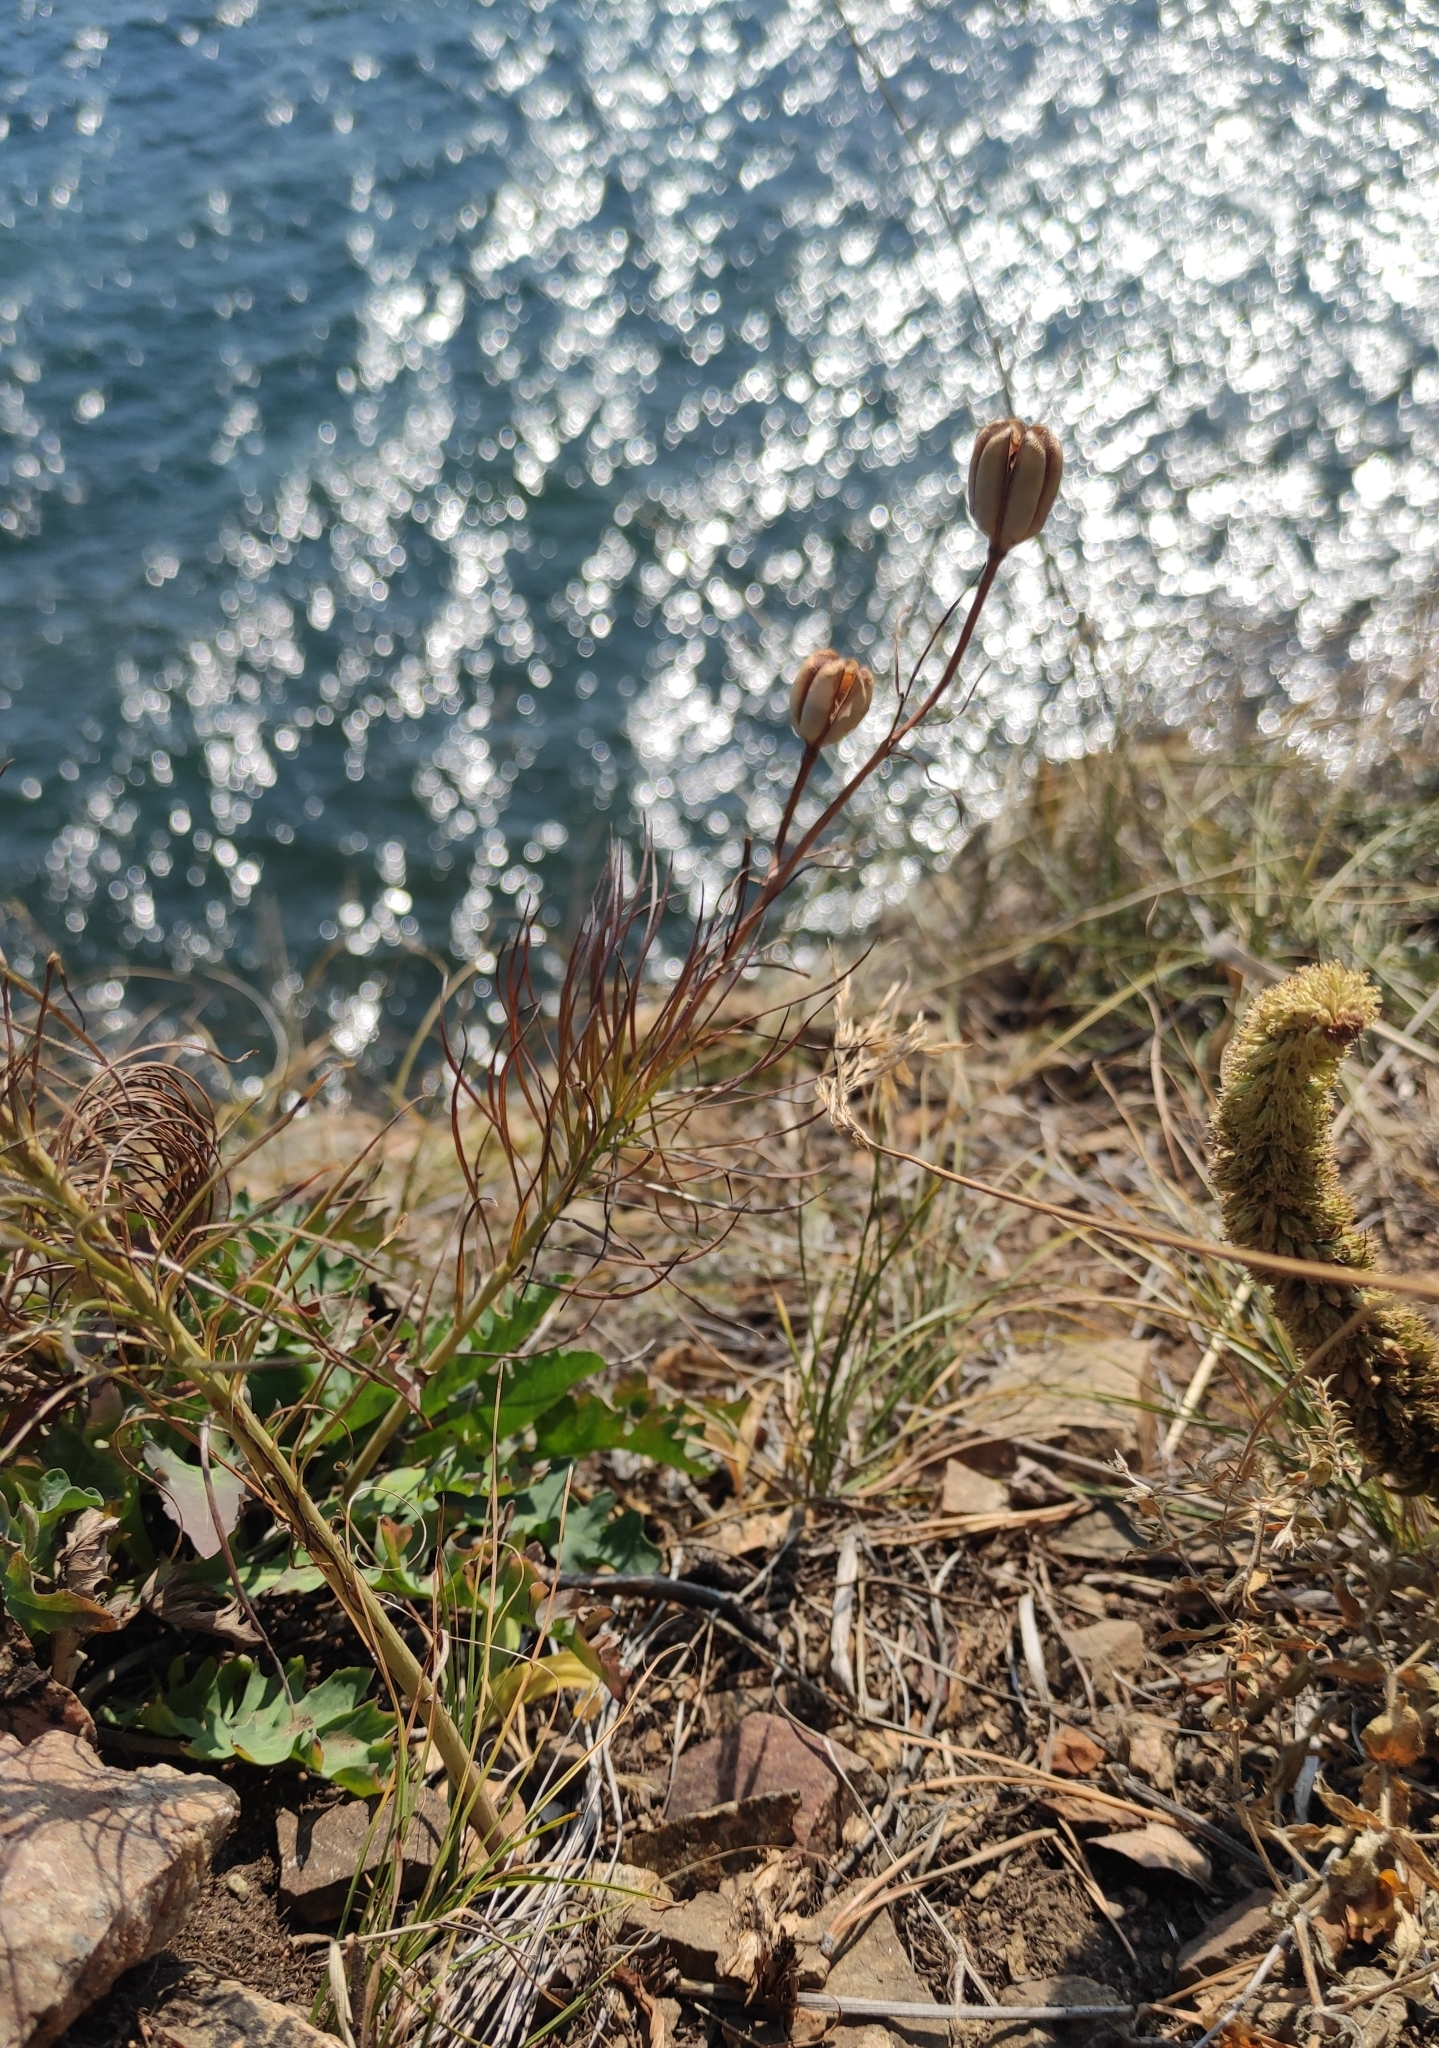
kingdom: Plantae
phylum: Tracheophyta
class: Liliopsida
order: Liliales
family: Liliaceae
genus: Lilium
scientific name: Lilium pumilum
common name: Coral lily
